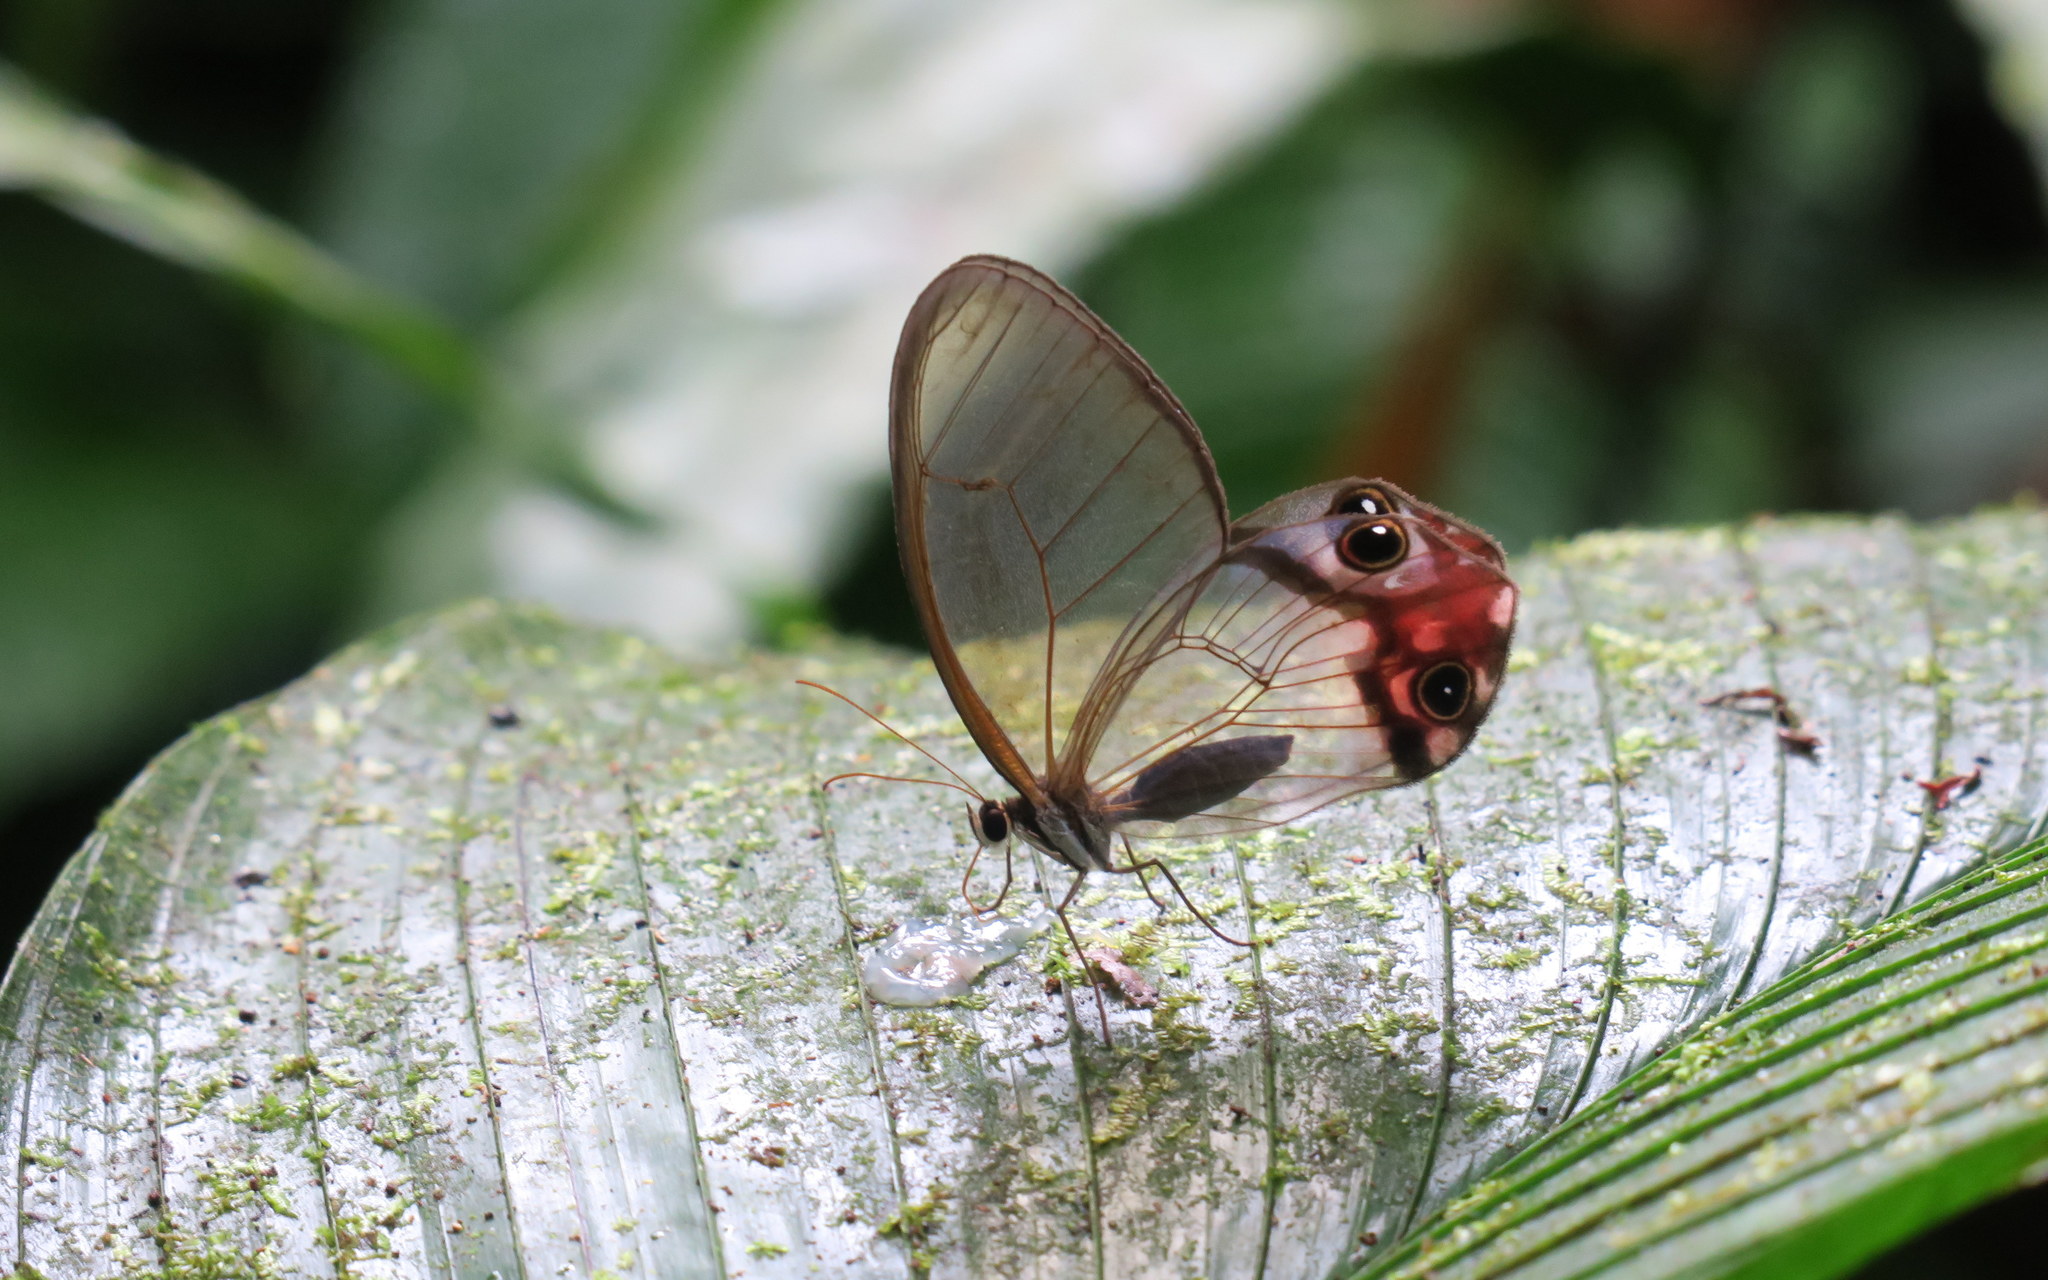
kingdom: Animalia
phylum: Arthropoda
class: Insecta
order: Lepidoptera
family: Nymphalidae
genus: Haetera
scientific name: Haetera macleannania
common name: Reddish clearwing-satyr
